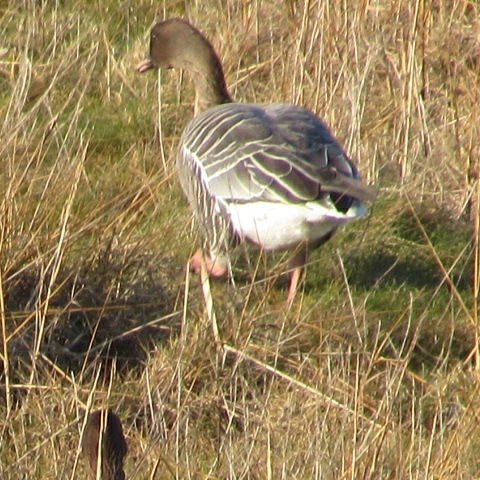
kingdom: Animalia
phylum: Chordata
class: Aves
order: Anseriformes
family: Anatidae
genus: Anser
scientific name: Anser brachyrhynchus
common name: Pink-footed goose
